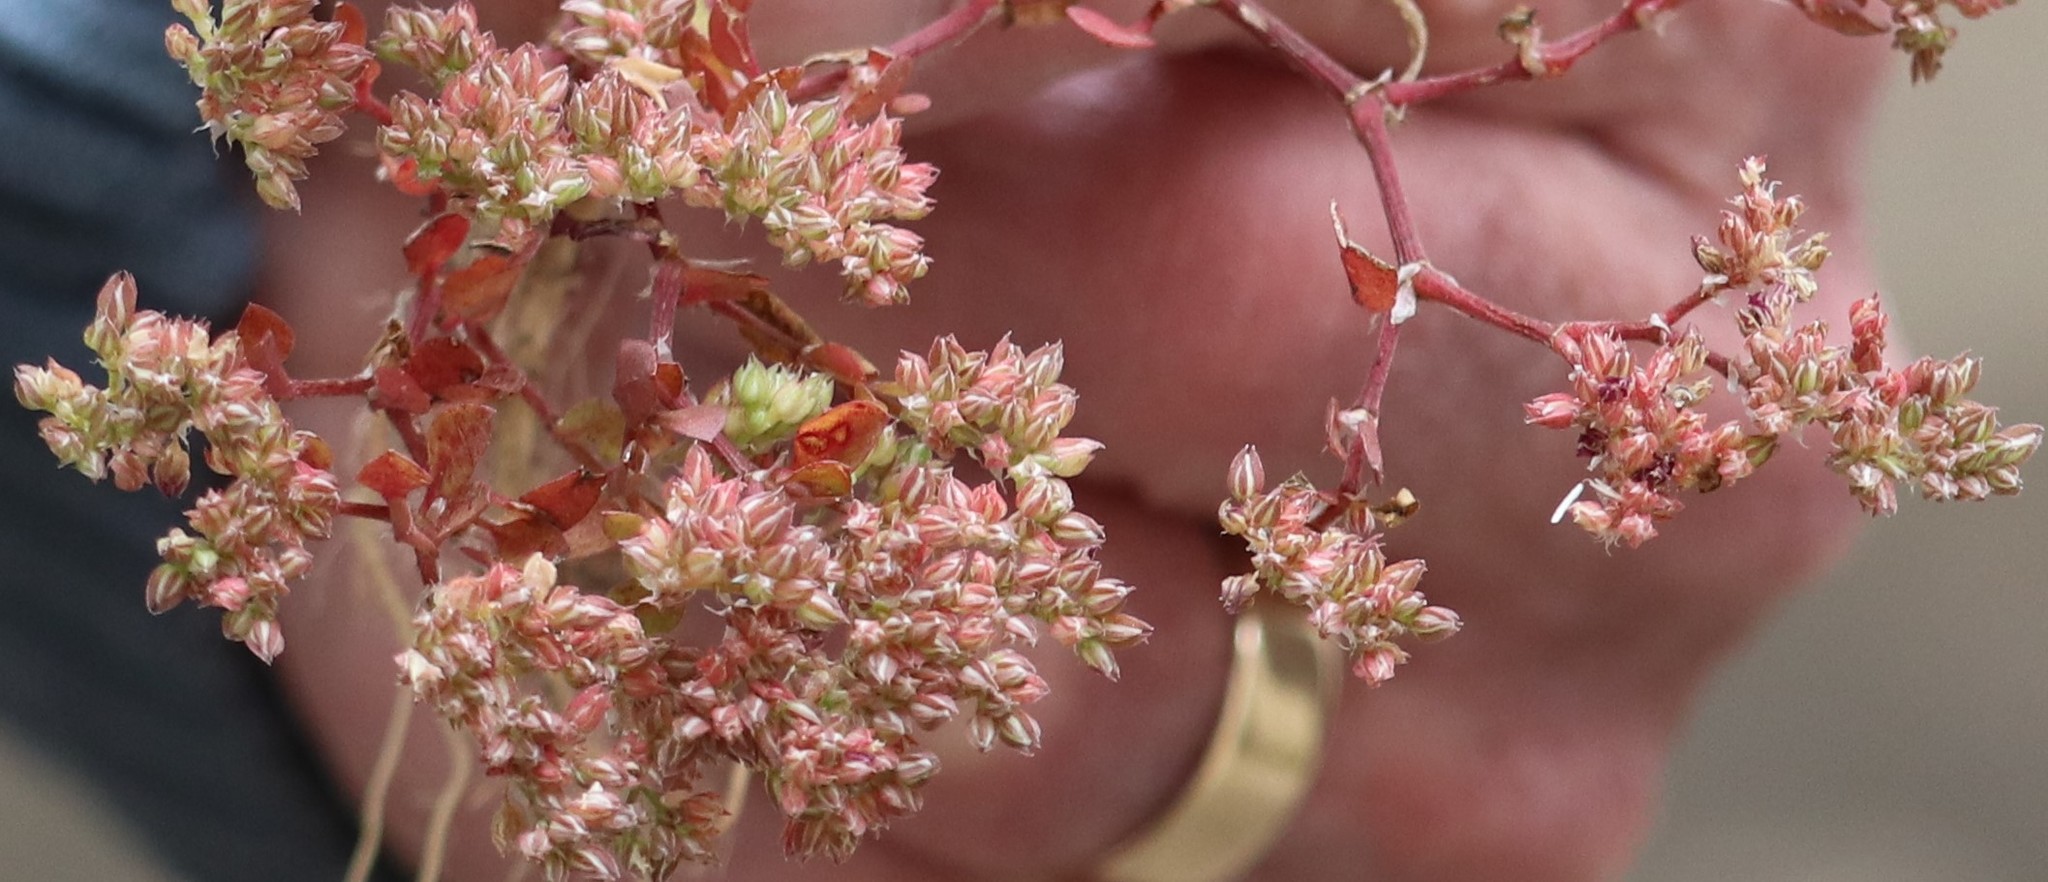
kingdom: Plantae
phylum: Tracheophyta
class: Magnoliopsida
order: Caryophyllales
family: Caryophyllaceae
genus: Polycarpon
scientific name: Polycarpon tetraphyllum
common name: Four-leaved all-seed
